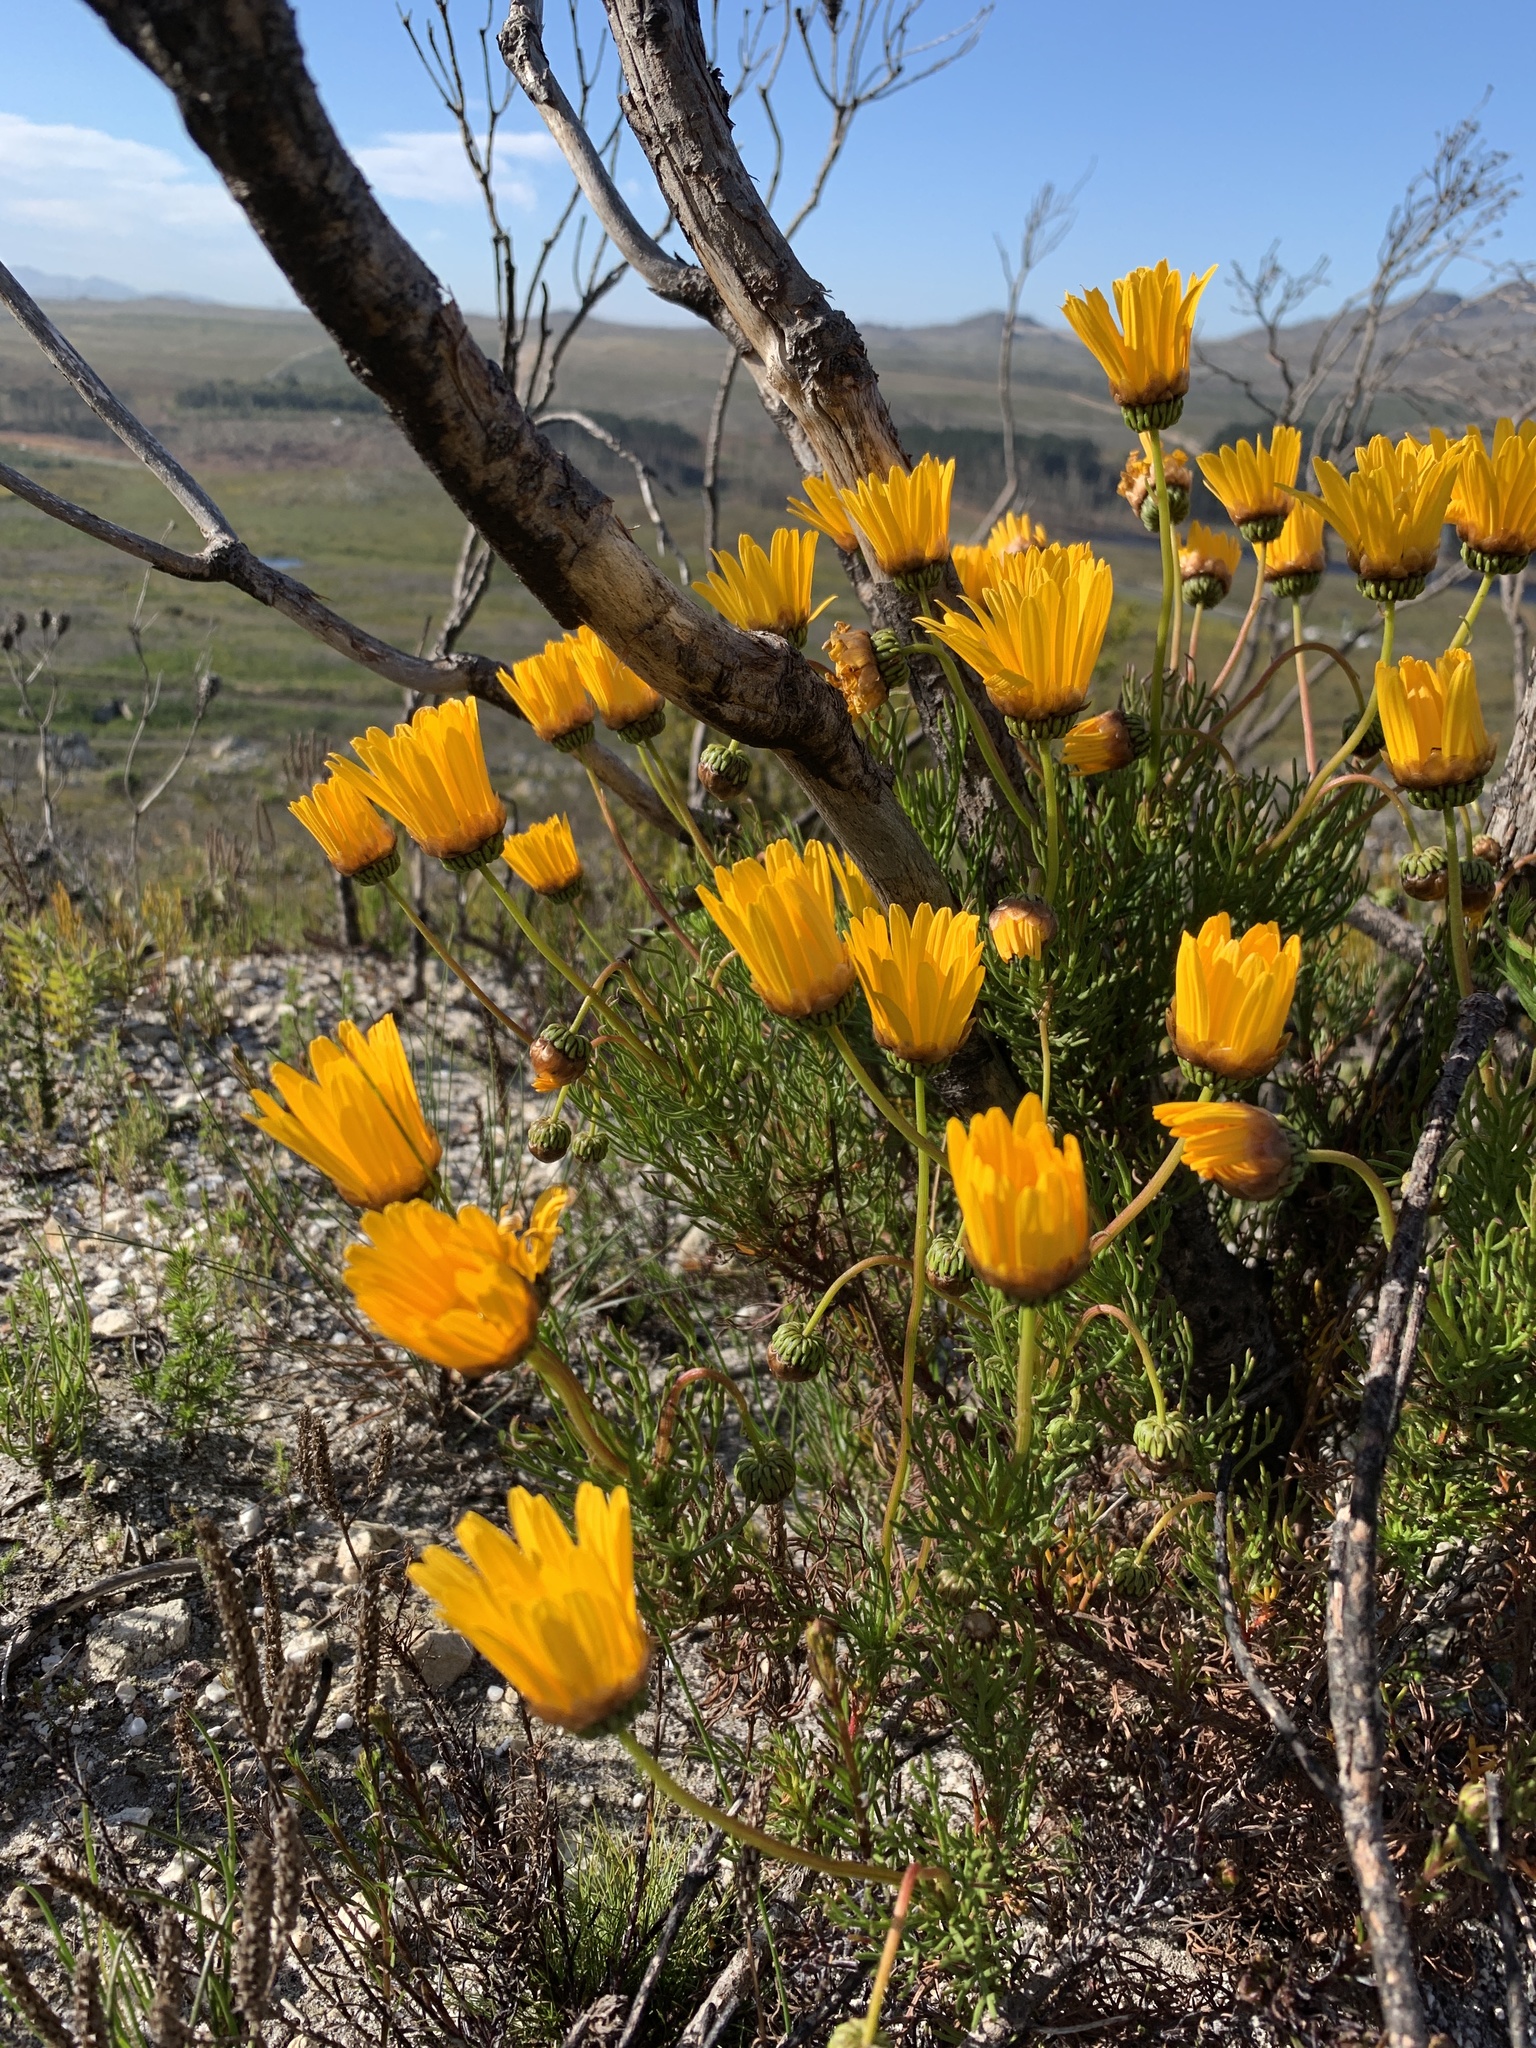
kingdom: Plantae
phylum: Tracheophyta
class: Magnoliopsida
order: Asterales
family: Asteraceae
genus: Euryops
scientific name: Euryops abrotanifolius
